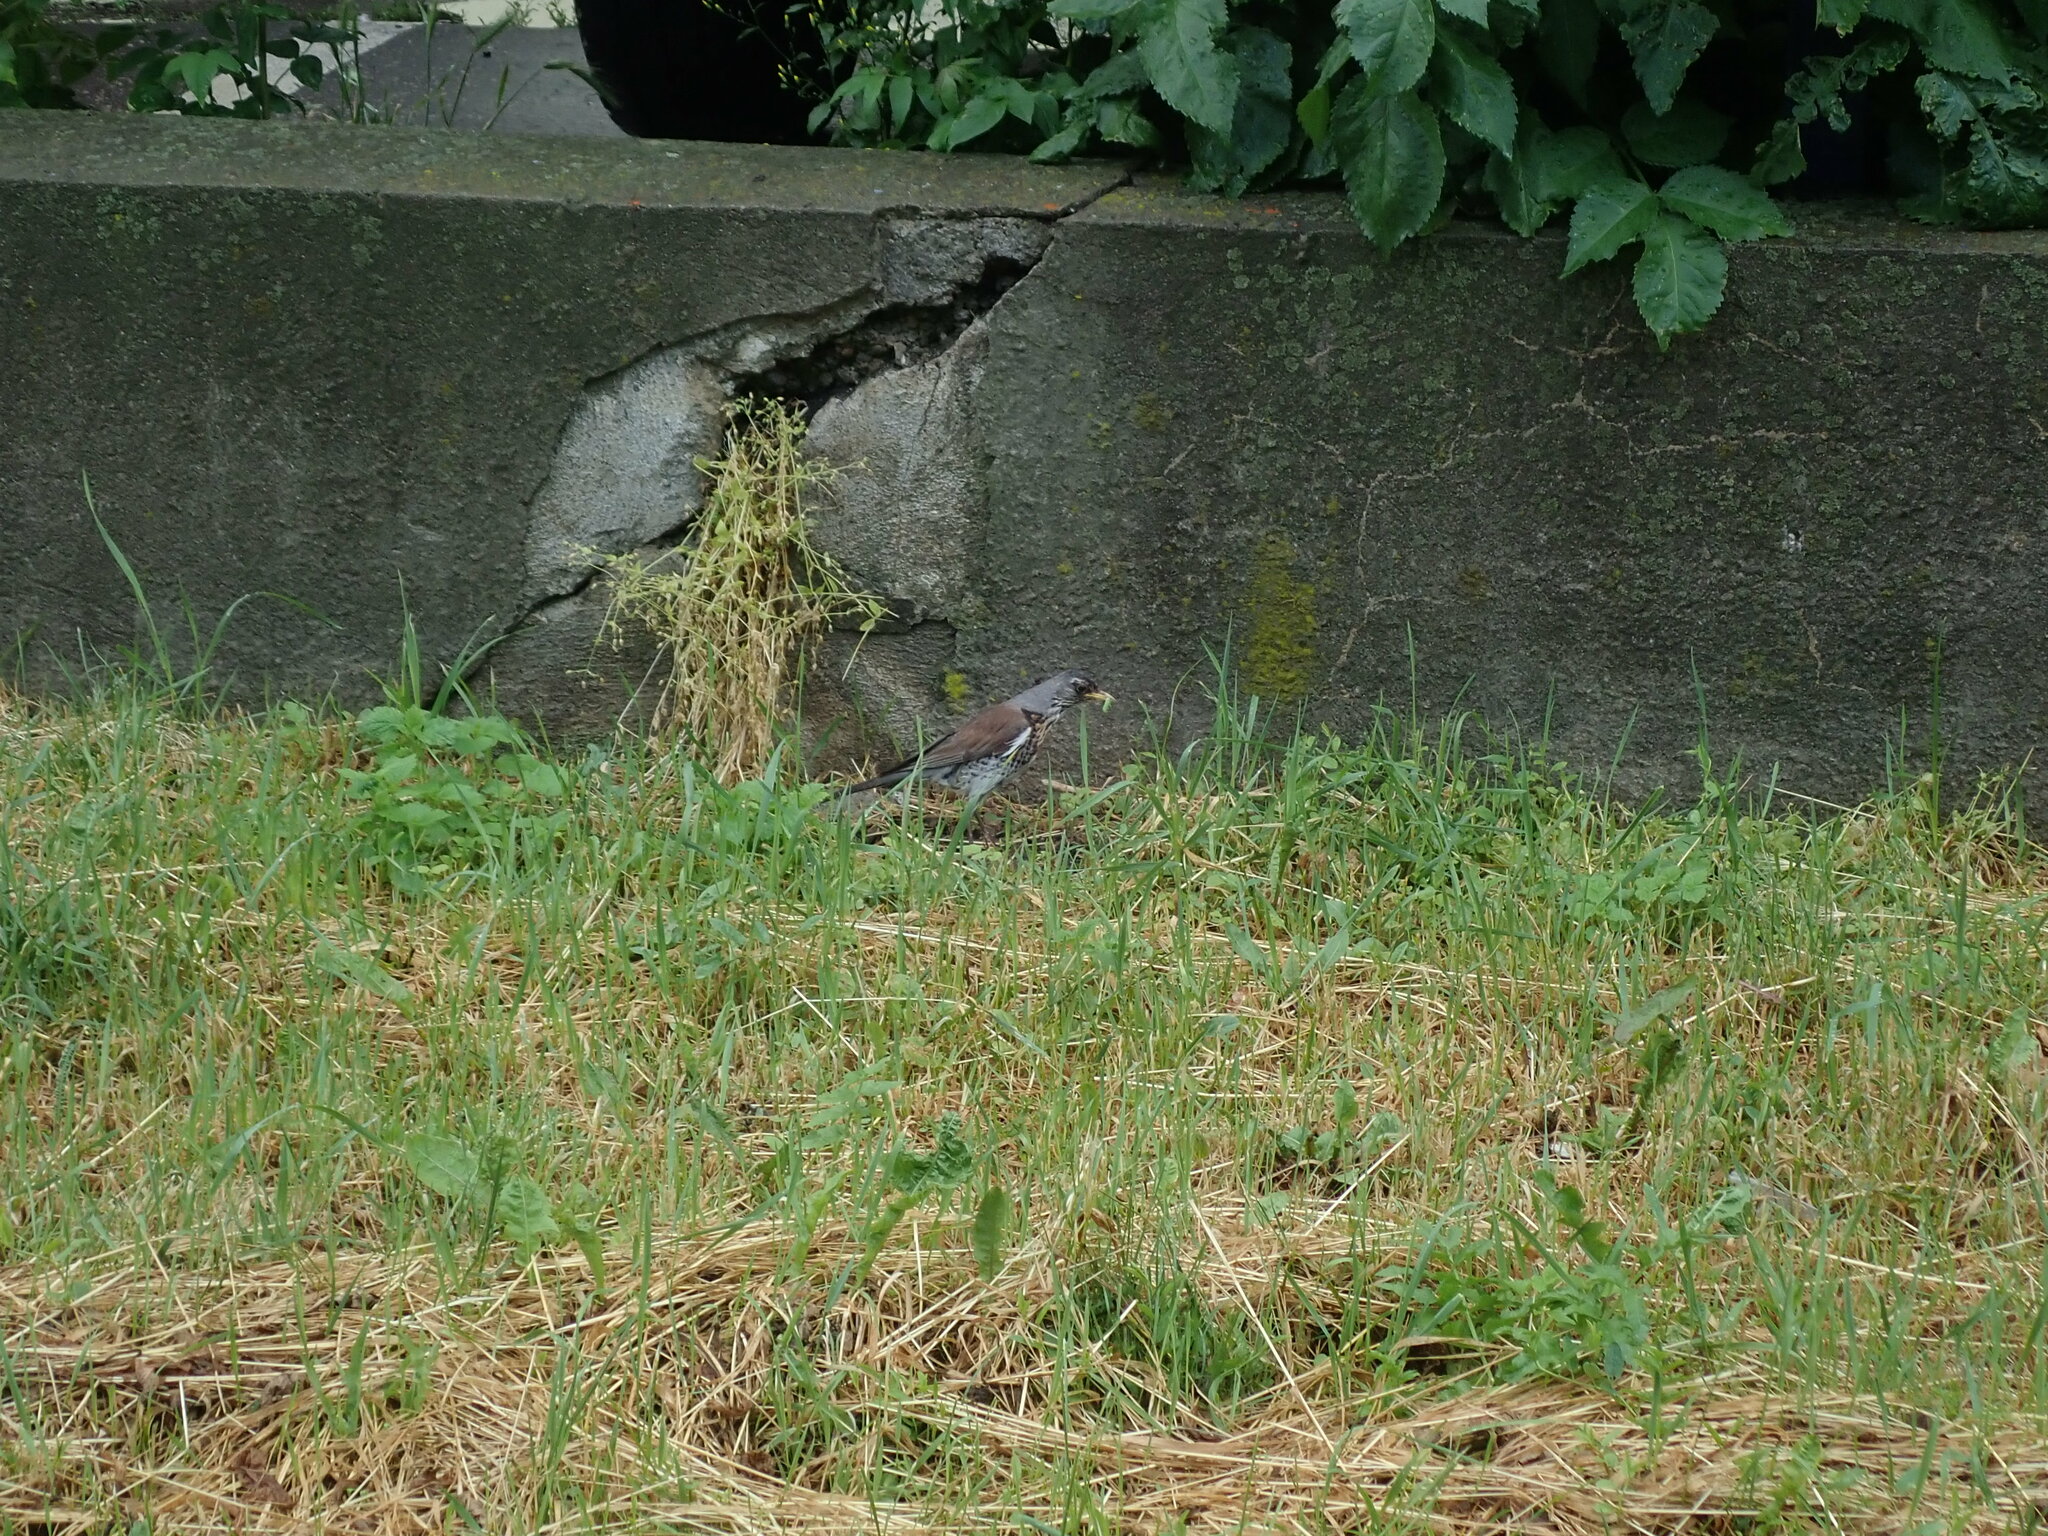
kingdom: Animalia
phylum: Chordata
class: Aves
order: Passeriformes
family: Turdidae
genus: Turdus
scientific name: Turdus pilaris
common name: Fieldfare
